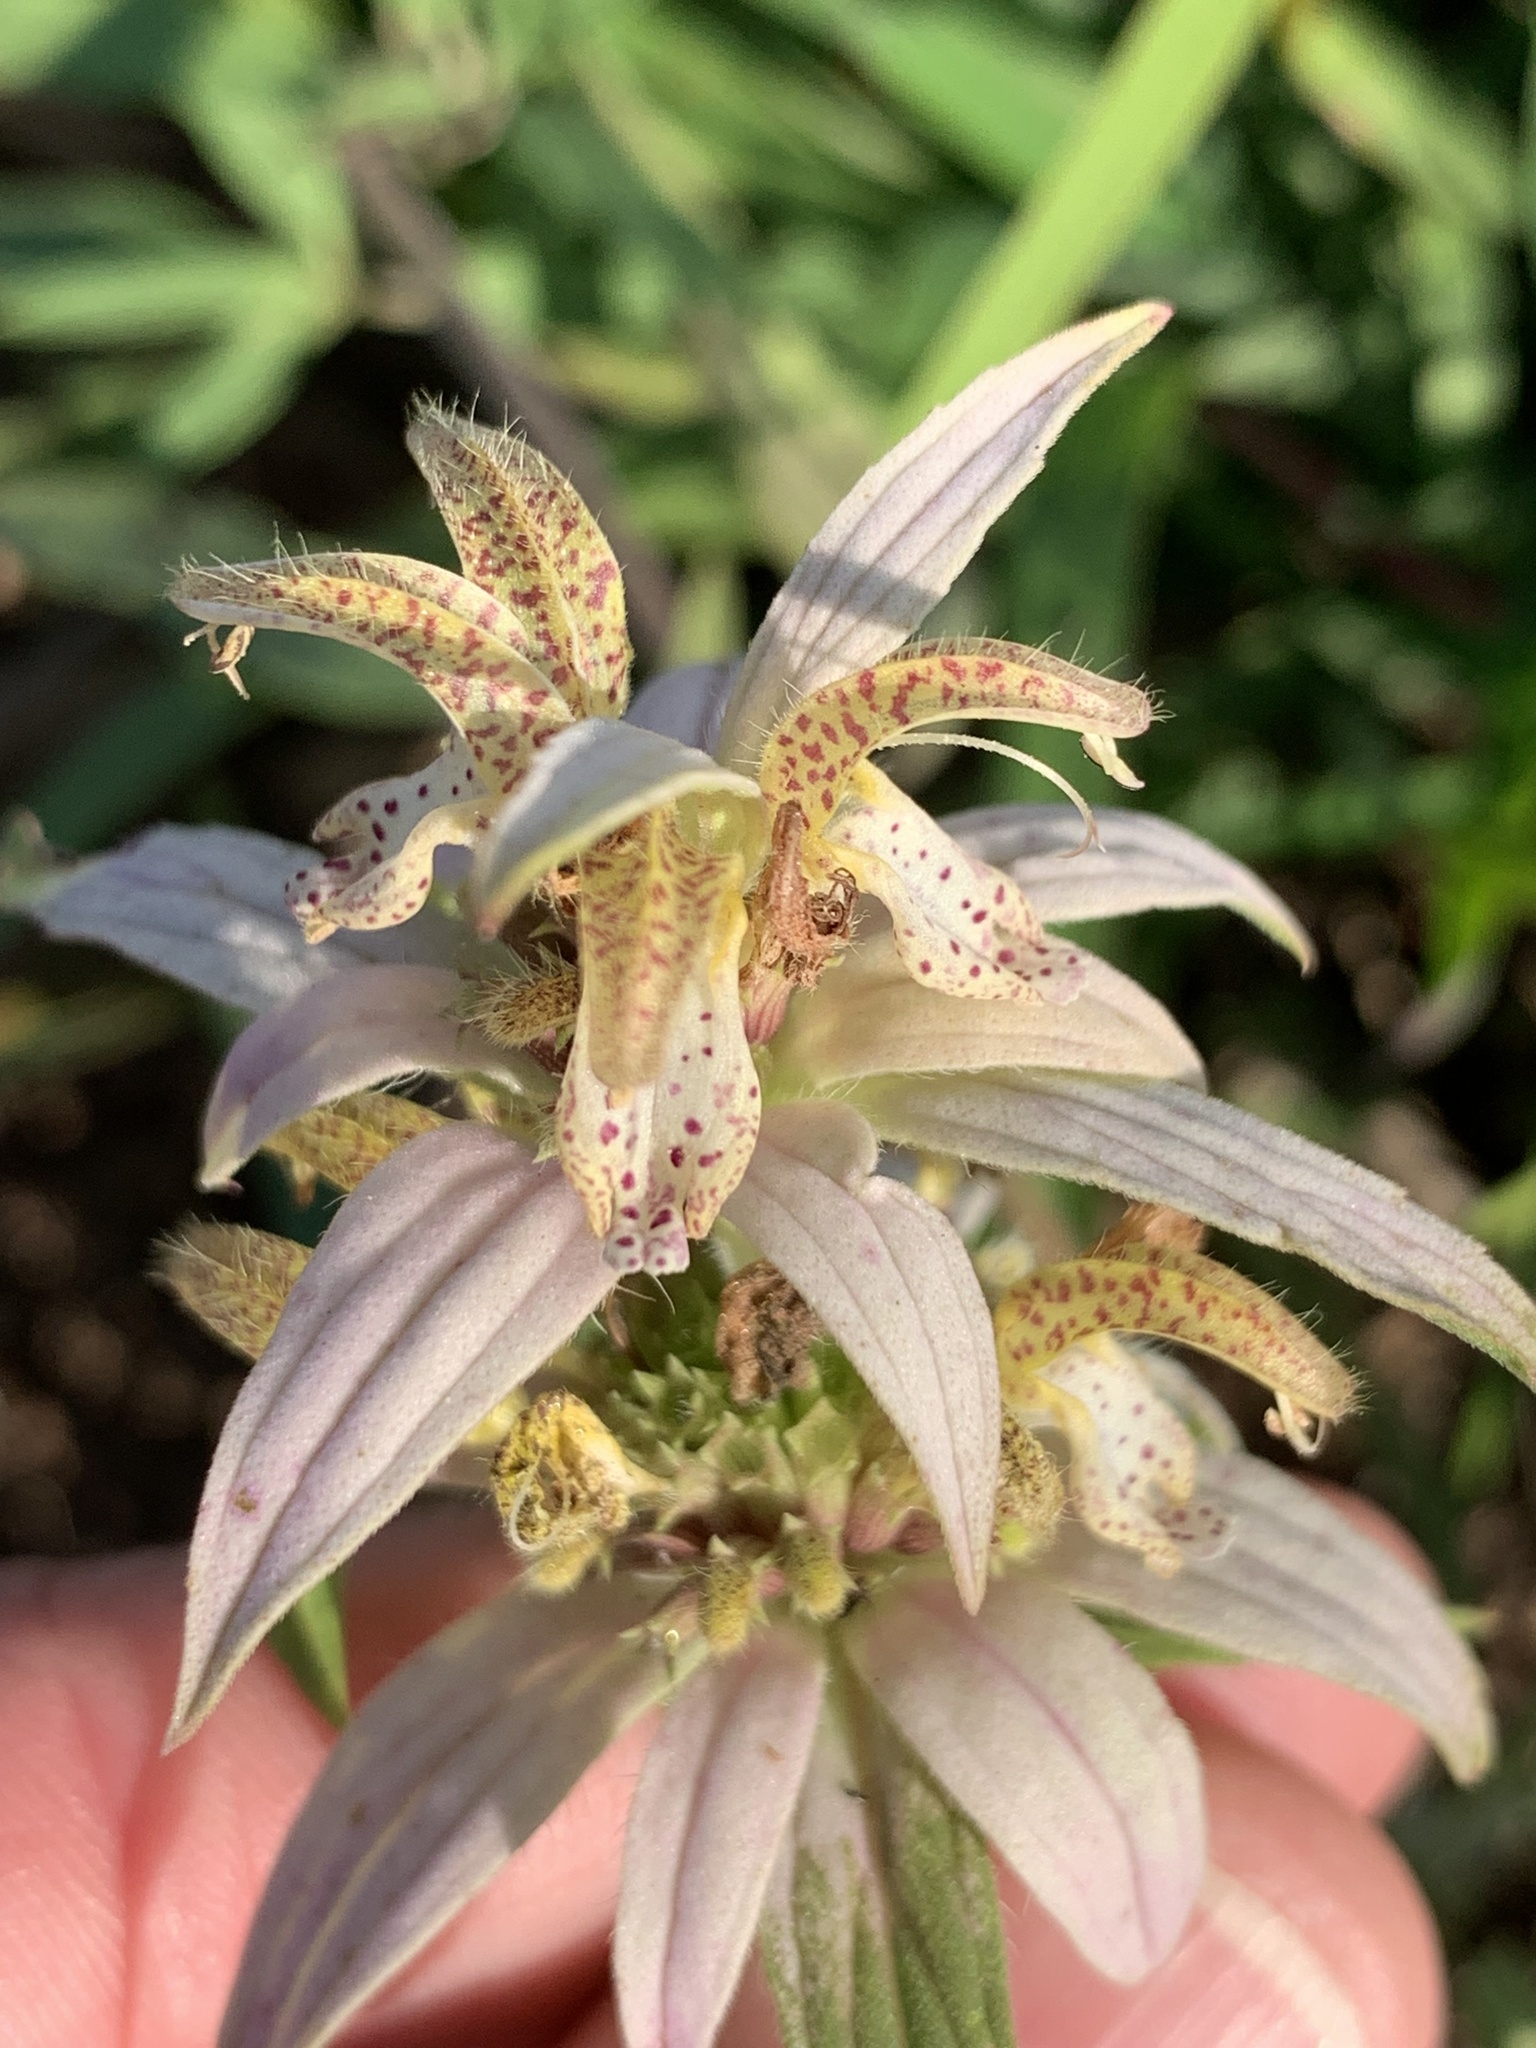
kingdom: Plantae
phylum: Tracheophyta
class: Magnoliopsida
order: Lamiales
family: Lamiaceae
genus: Monarda
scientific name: Monarda punctata
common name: Dotted monarda
